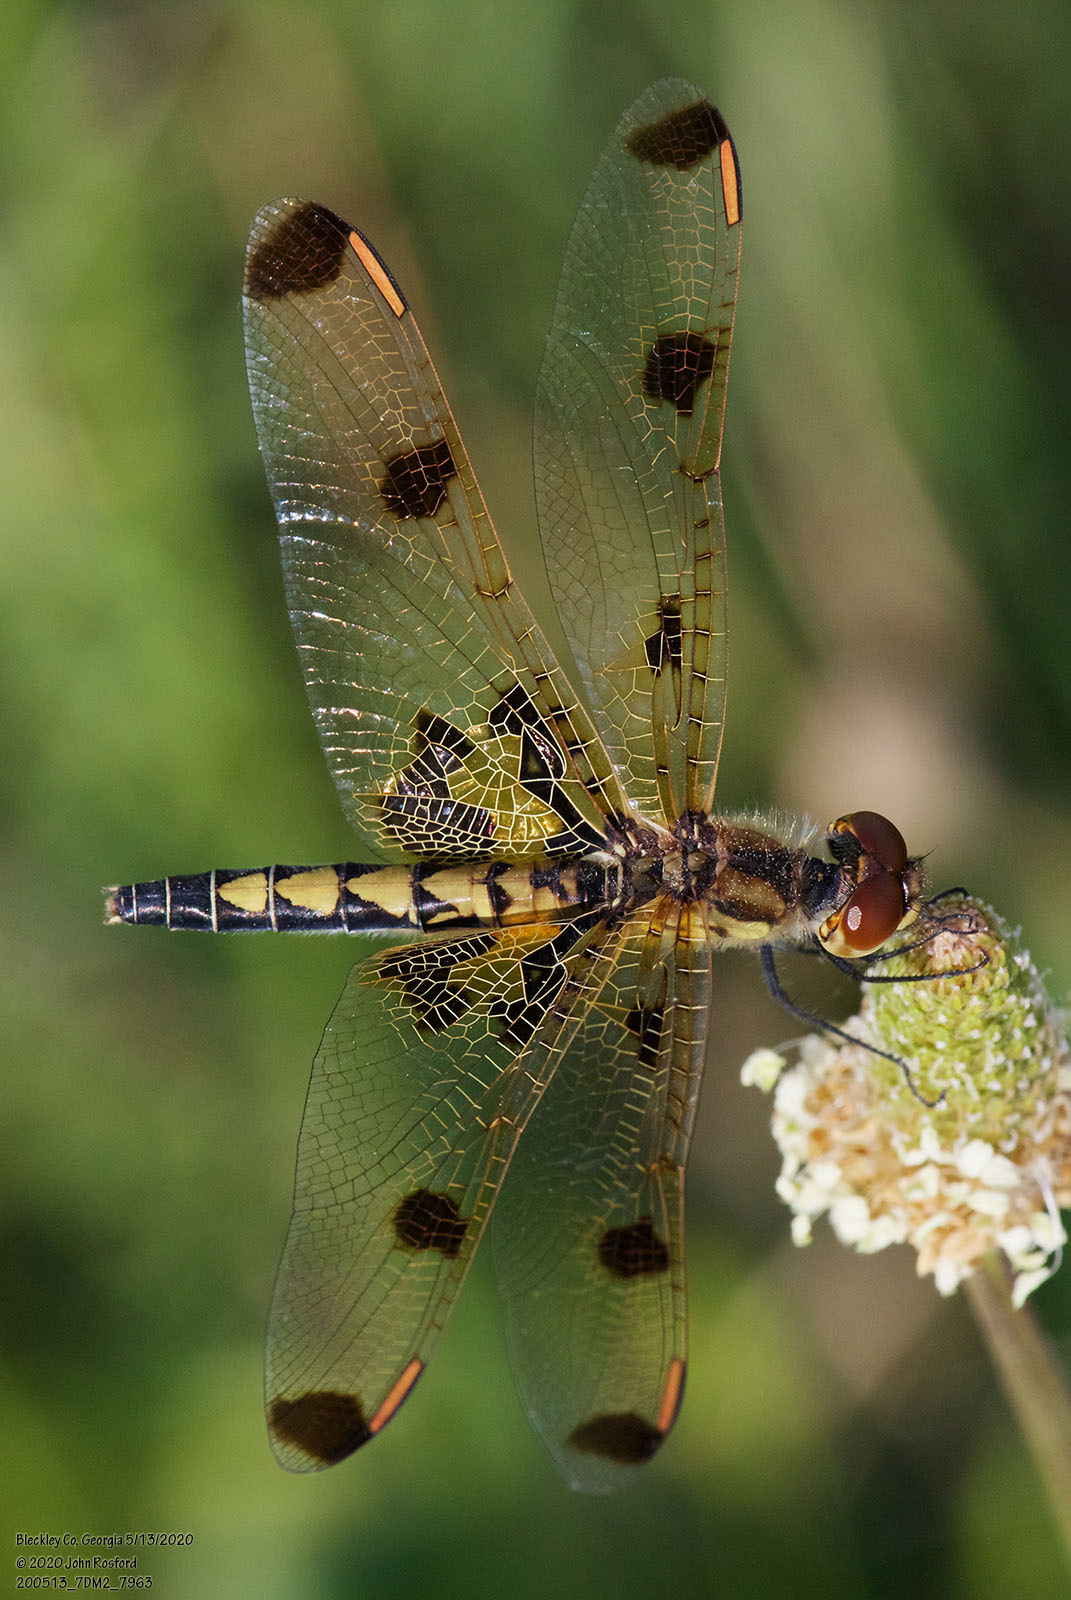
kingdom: Animalia
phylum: Arthropoda
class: Insecta
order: Odonata
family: Libellulidae
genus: Celithemis
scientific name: Celithemis elisa
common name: Calico pennant
